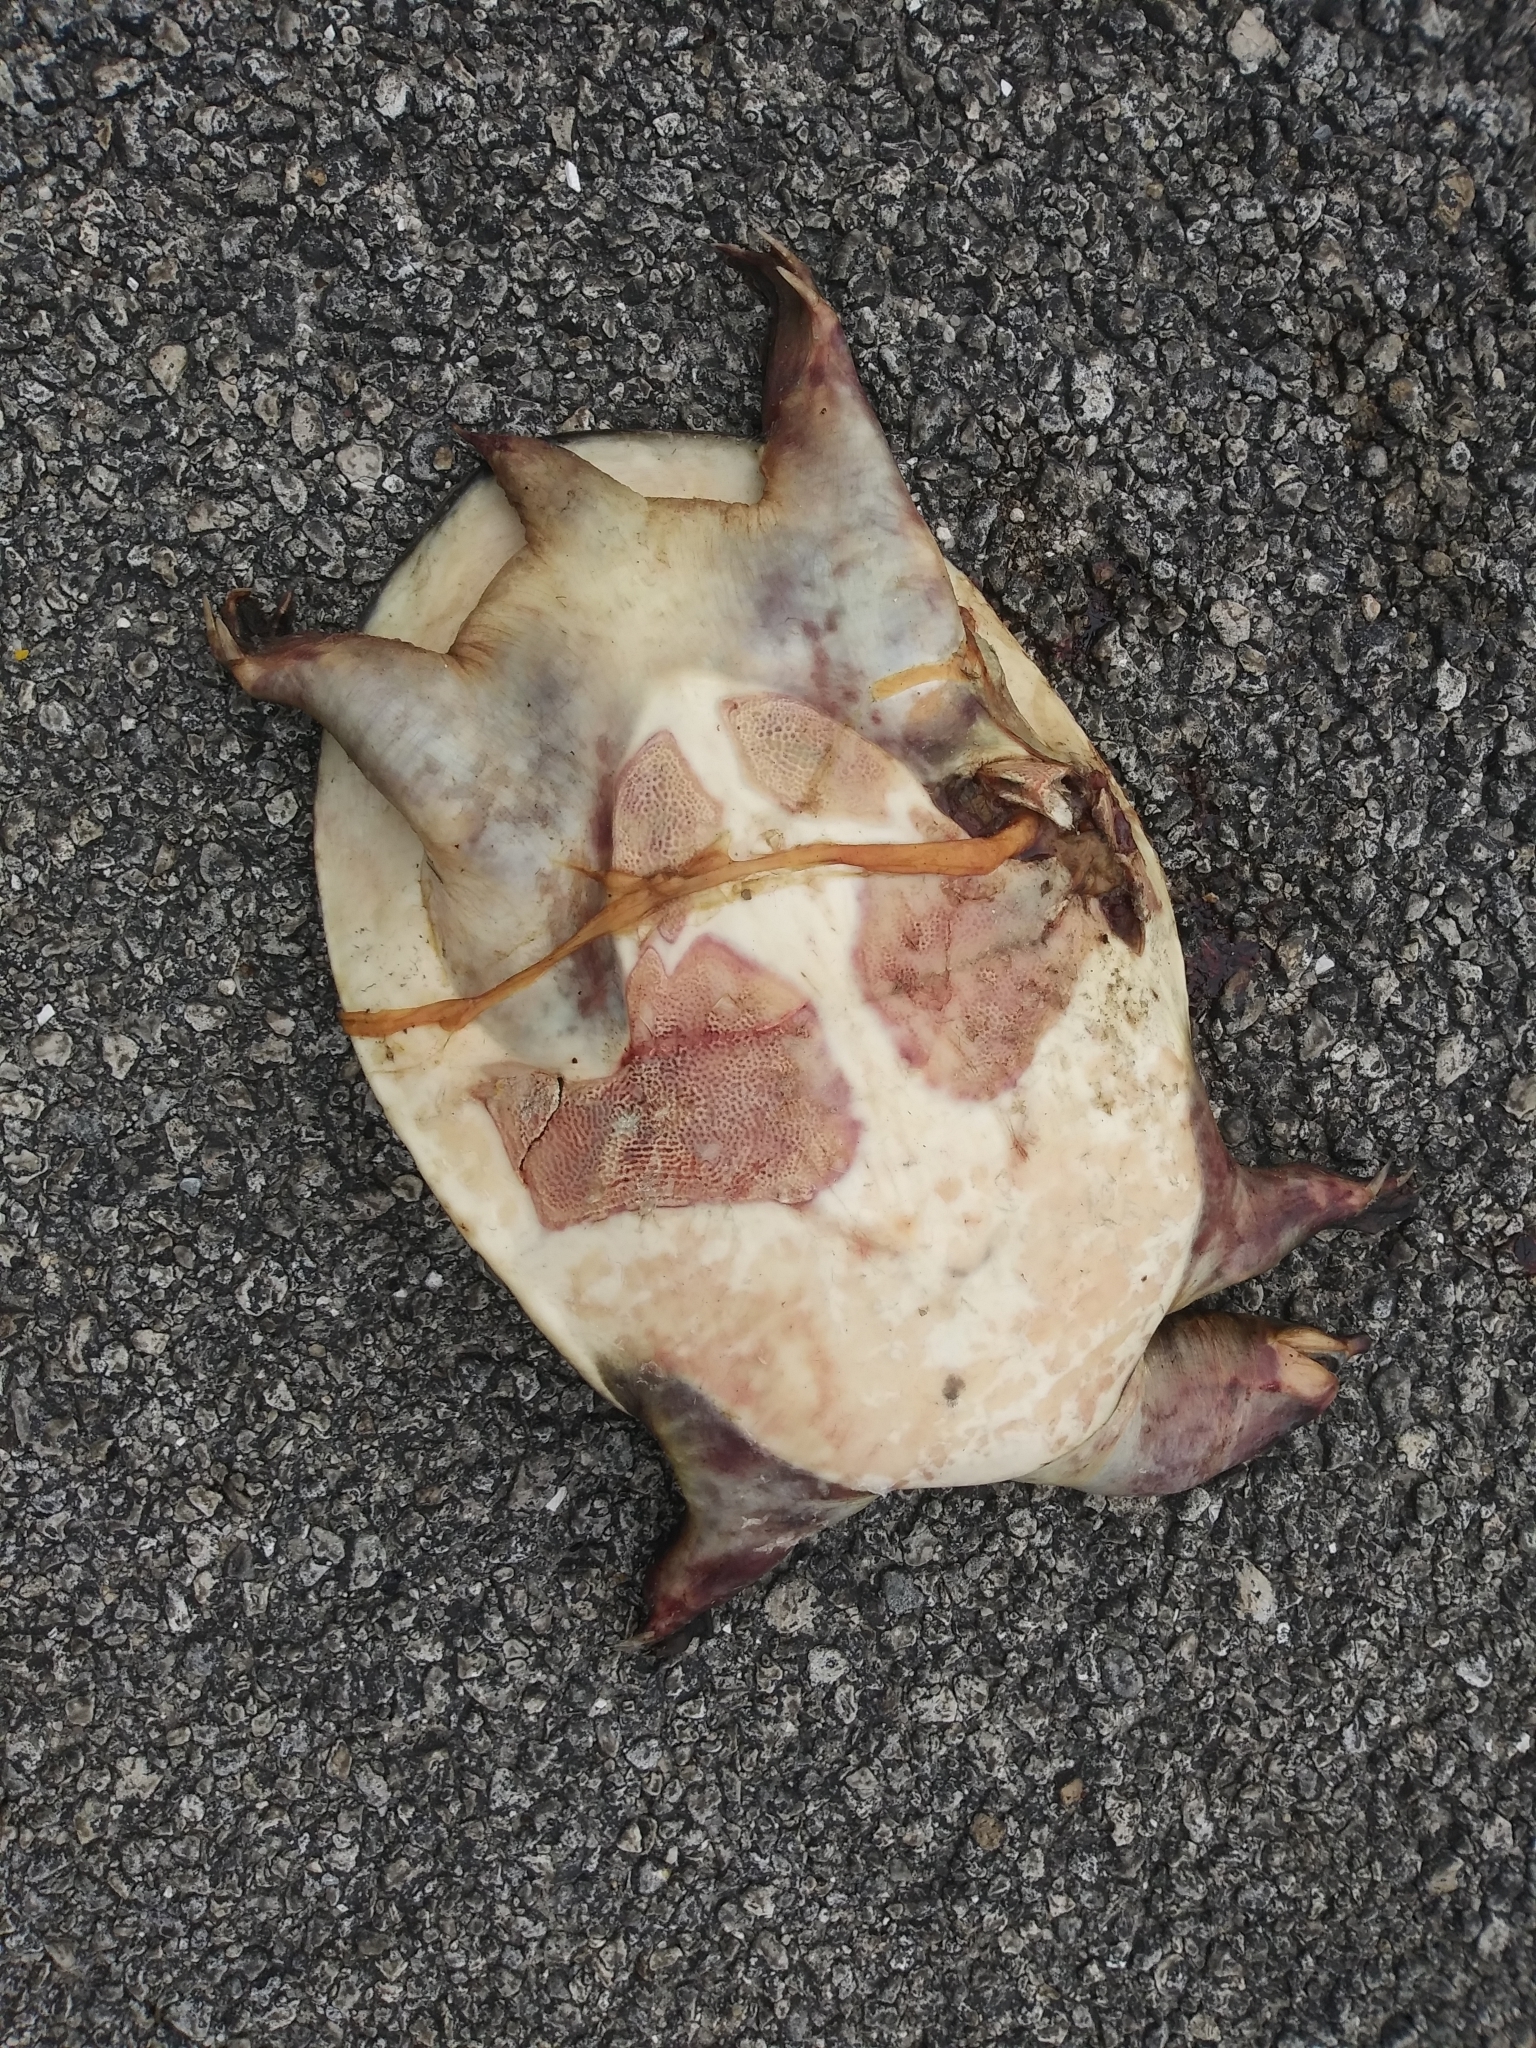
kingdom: Animalia
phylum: Chordata
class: Testudines
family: Trionychidae
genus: Apalone
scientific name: Apalone ferox
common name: Florida softshell turtle
